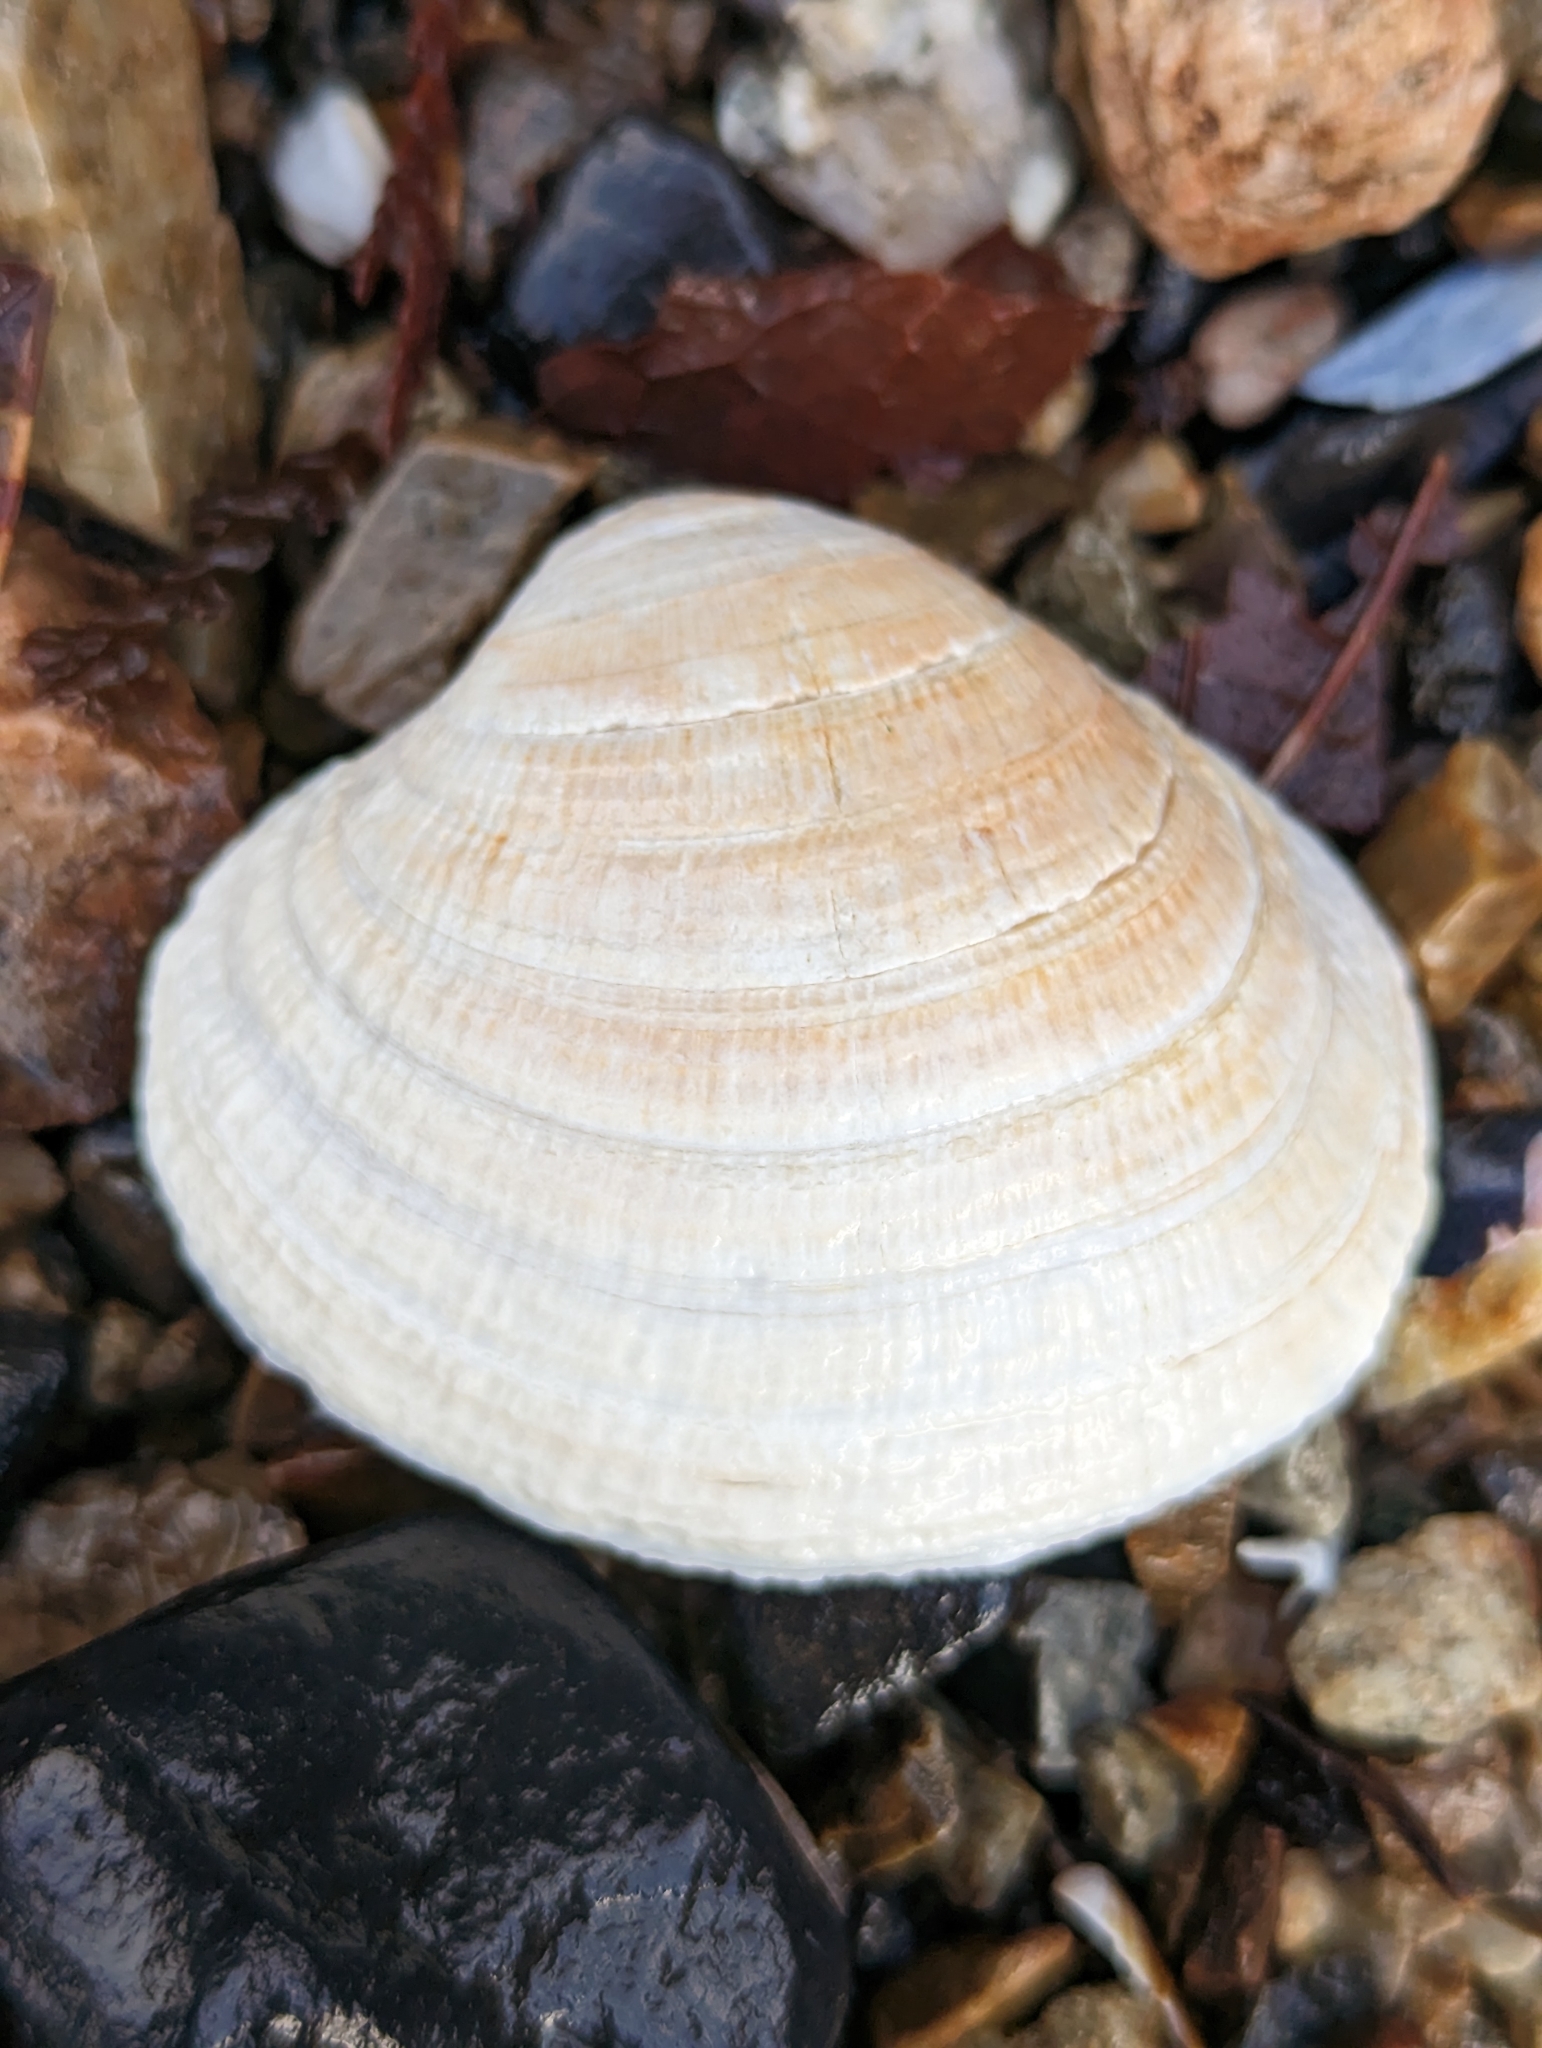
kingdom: Animalia
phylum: Mollusca
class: Bivalvia
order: Venerida
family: Veneridae
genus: Leukoma
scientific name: Leukoma staminea
